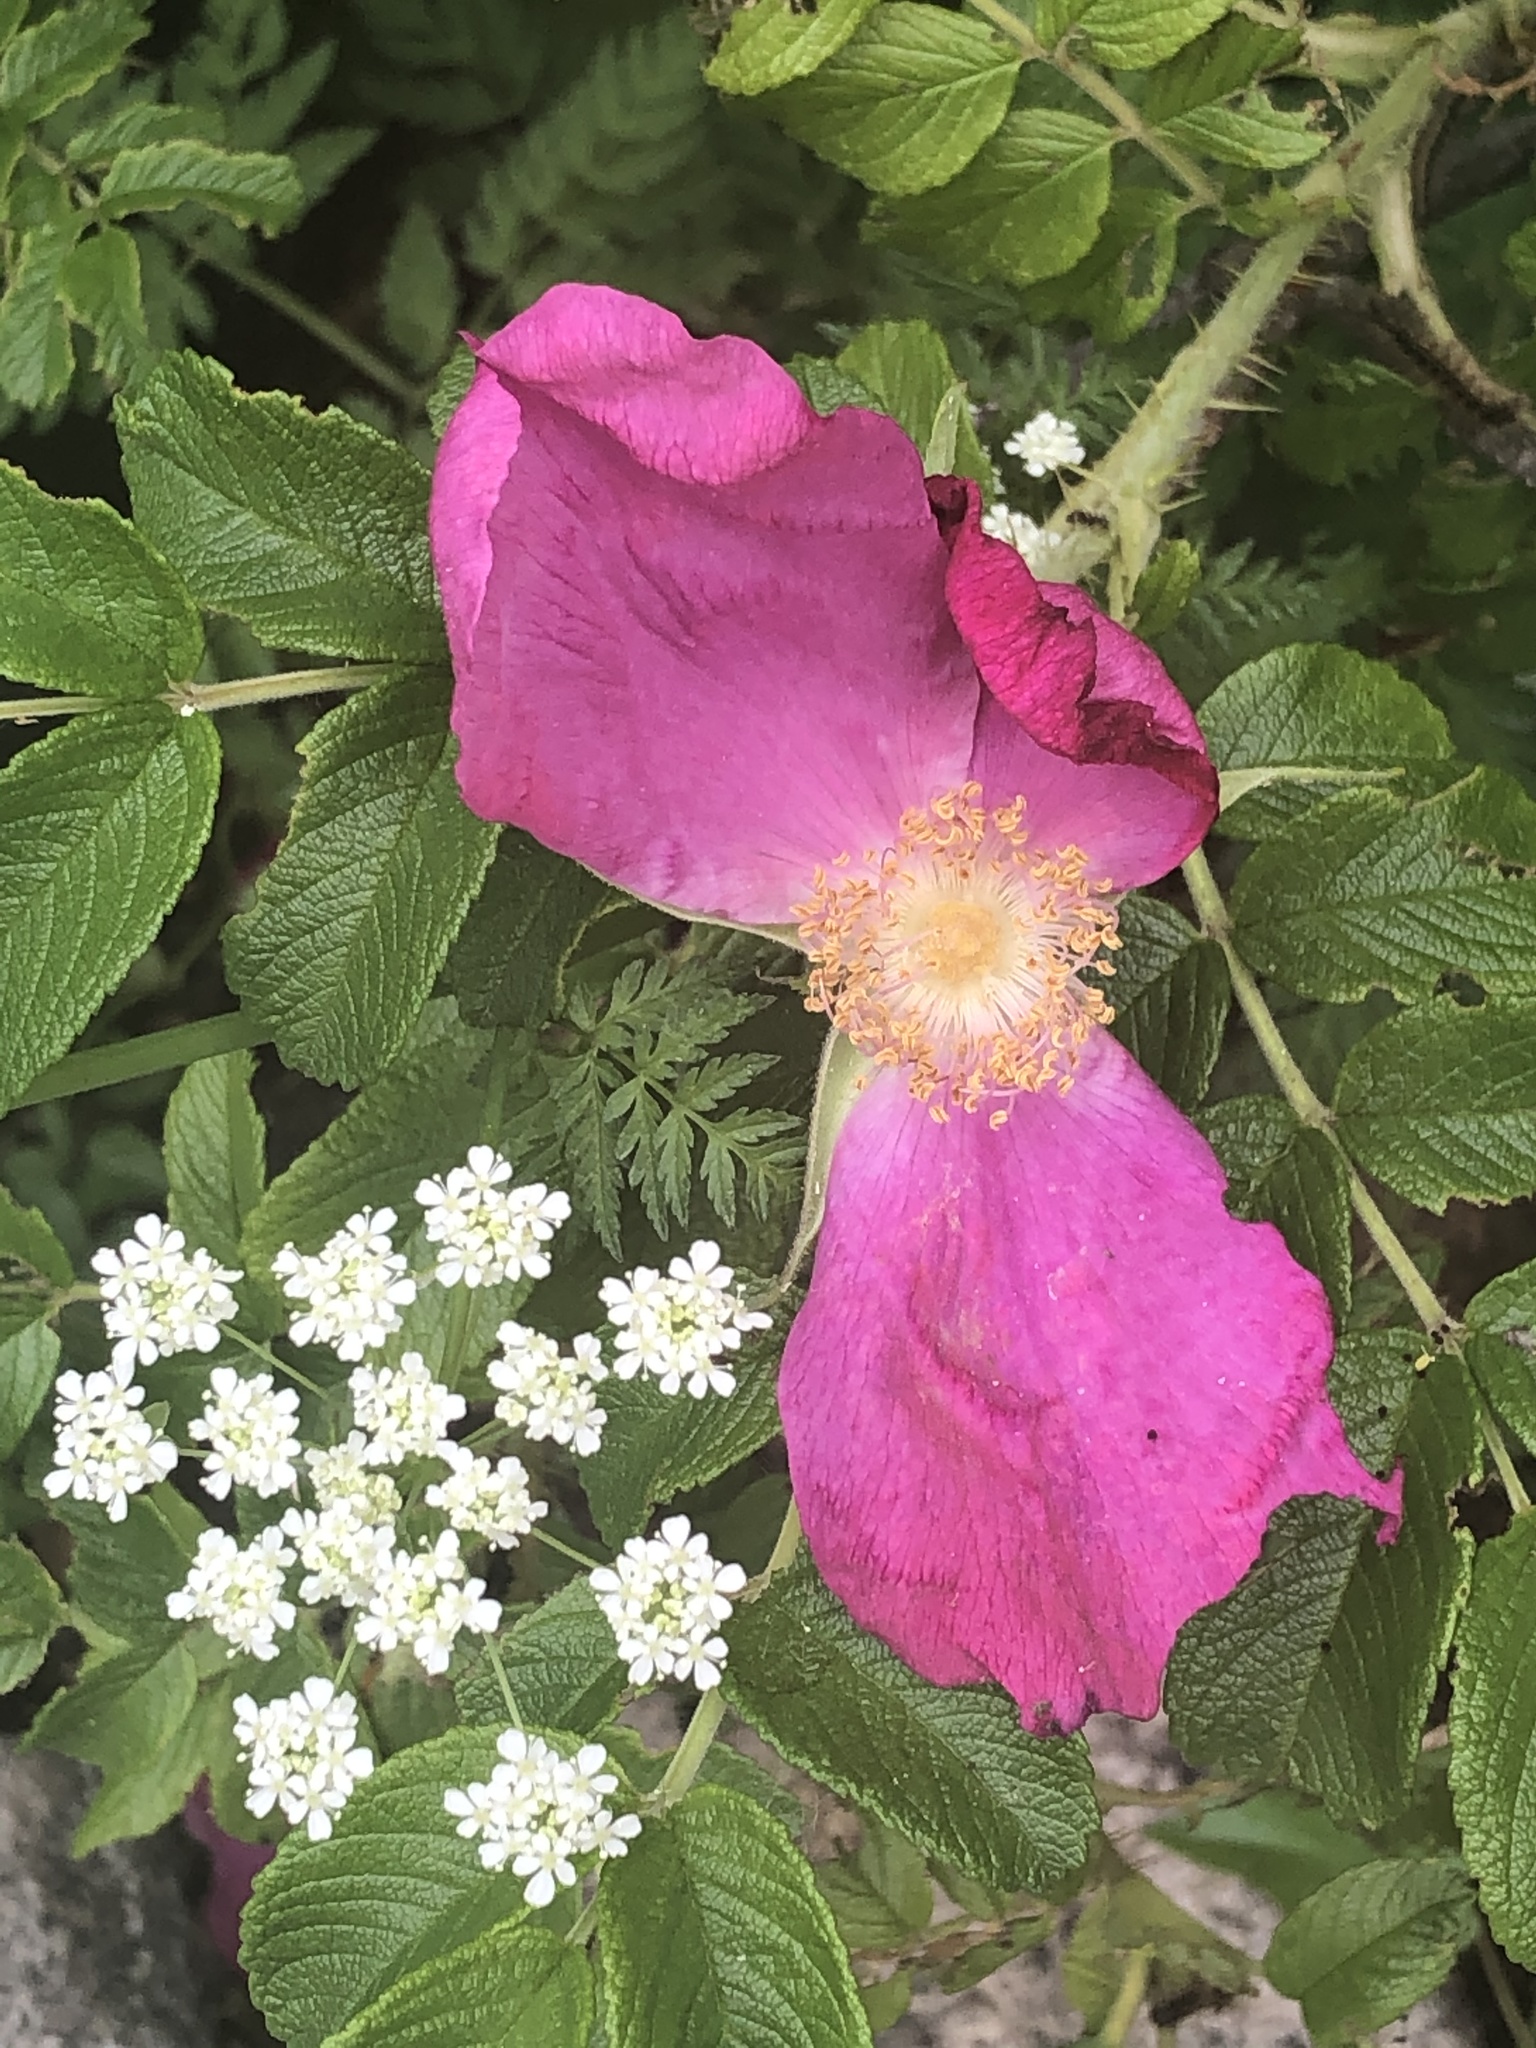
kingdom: Plantae
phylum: Tracheophyta
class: Magnoliopsida
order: Rosales
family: Rosaceae
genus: Rosa
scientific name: Rosa rugosa
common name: Japanese rose
